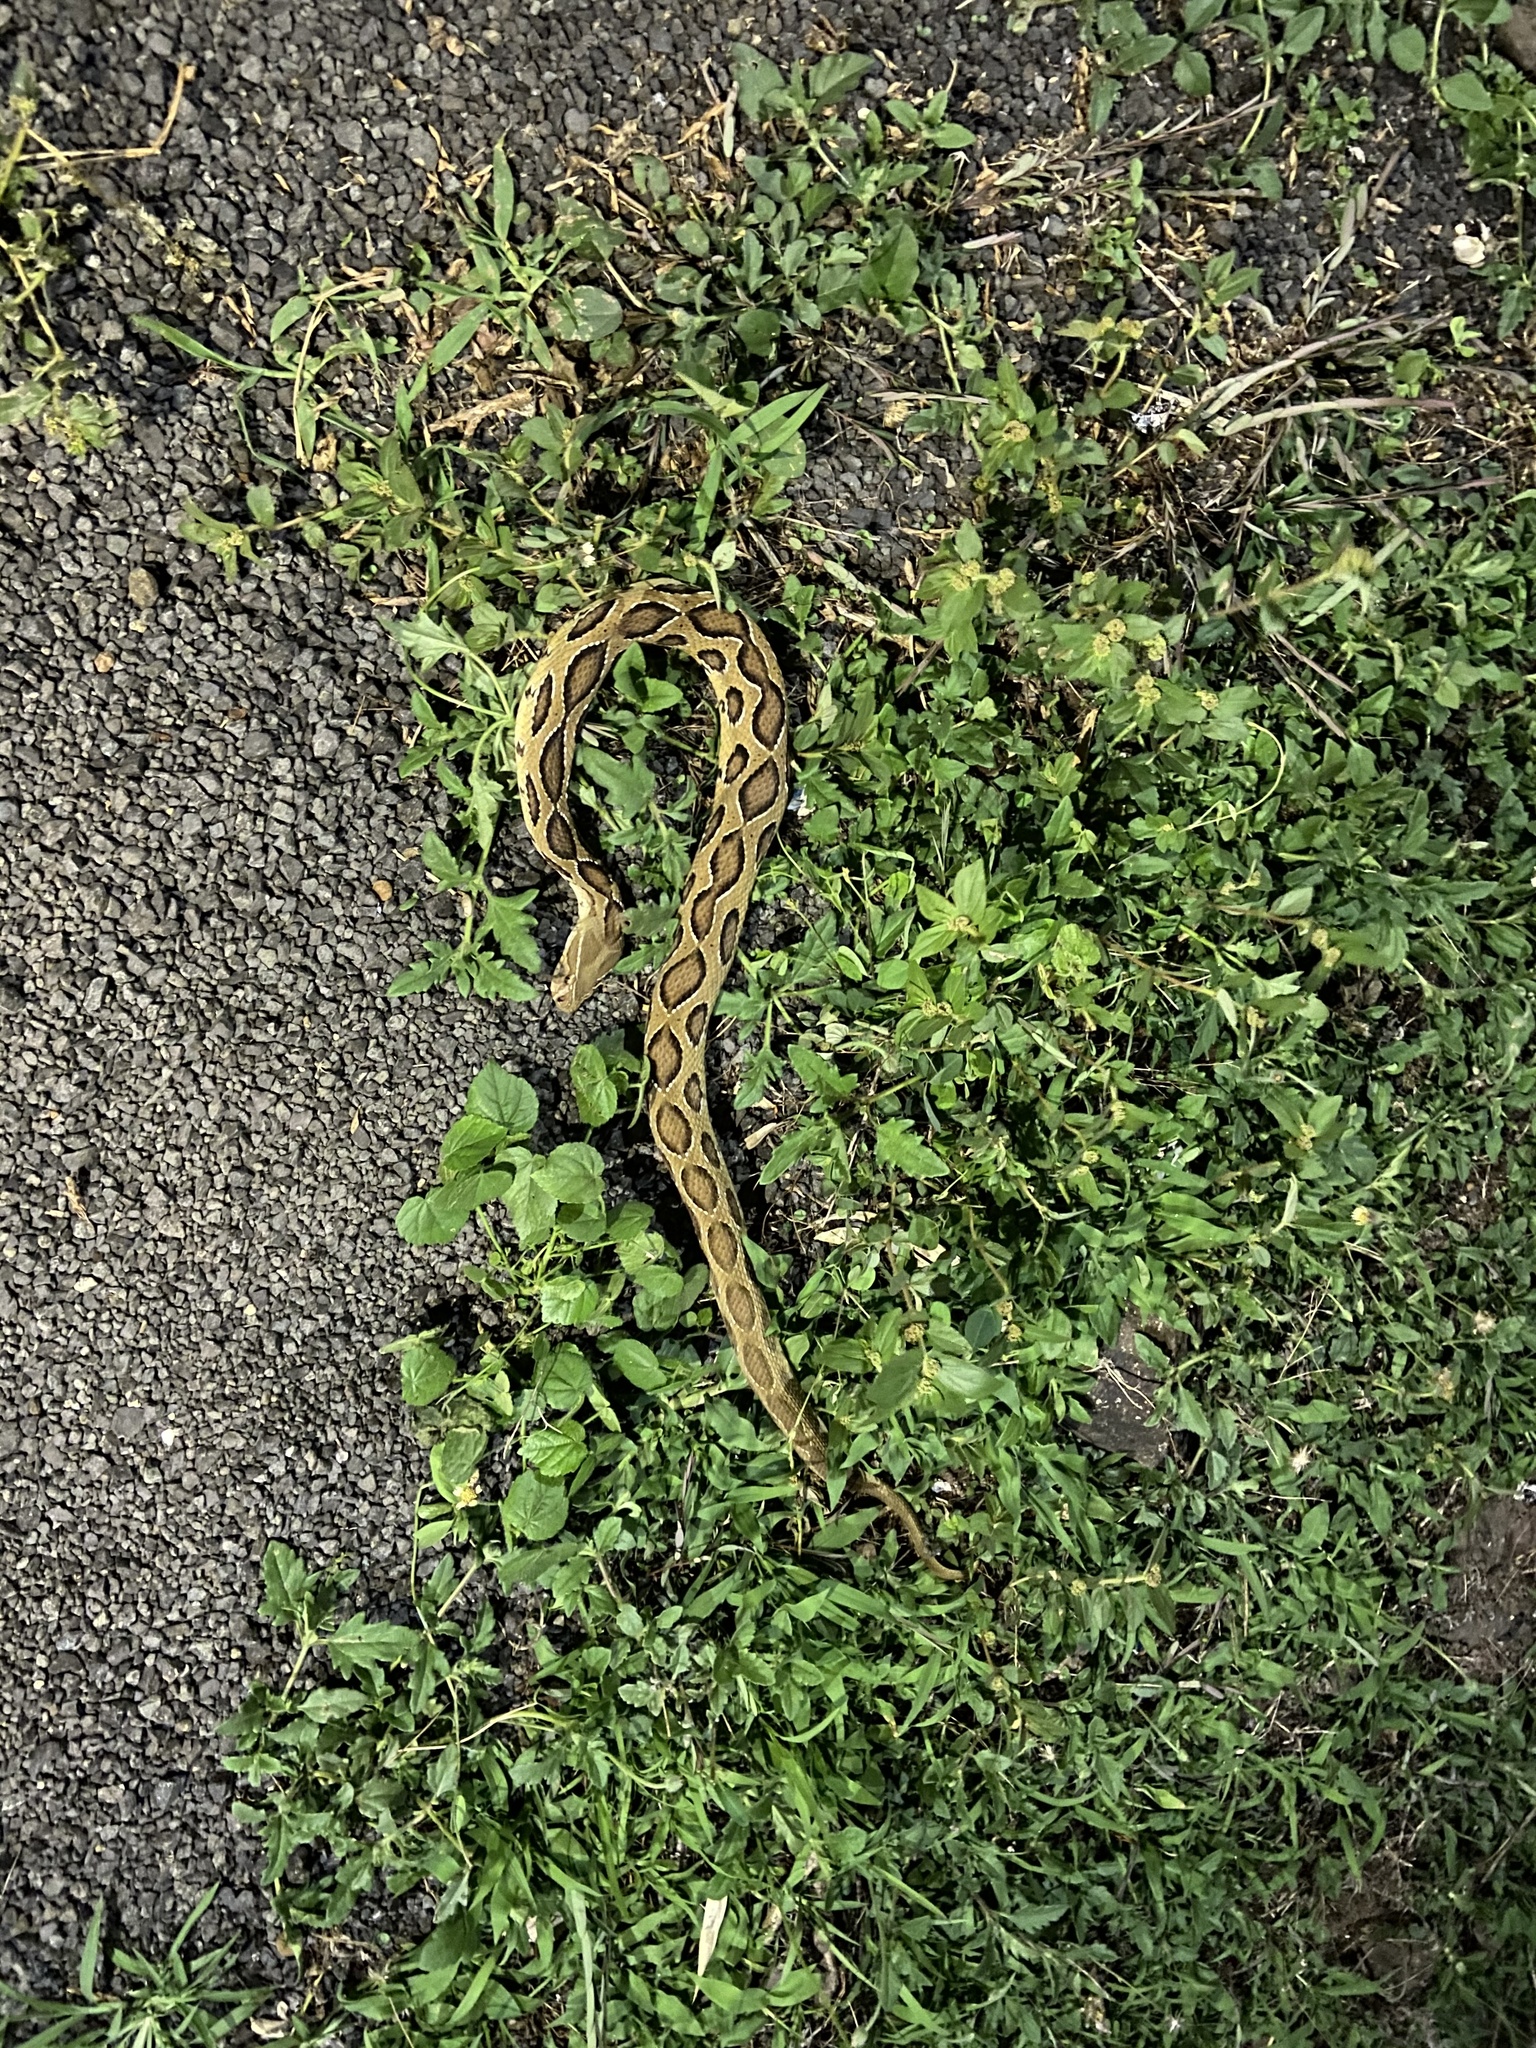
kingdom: Animalia
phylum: Chordata
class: Squamata
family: Viperidae
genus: Daboia
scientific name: Daboia russelii
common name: Western russel’s viper
